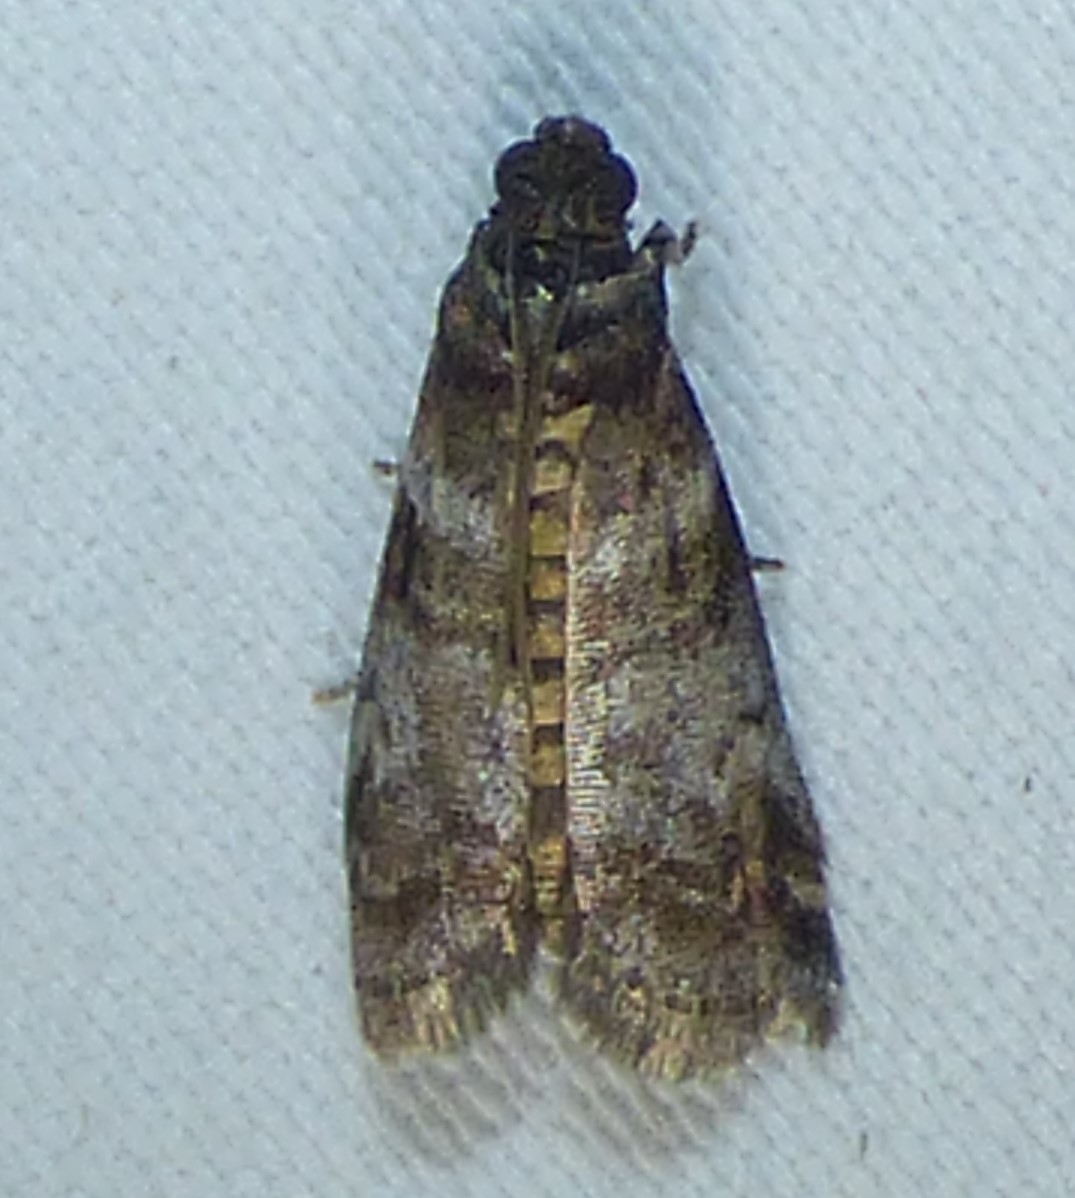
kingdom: Animalia
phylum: Arthropoda
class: Insecta
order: Lepidoptera
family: Pyralidae
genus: Sciota
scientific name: Sciota uvinella
